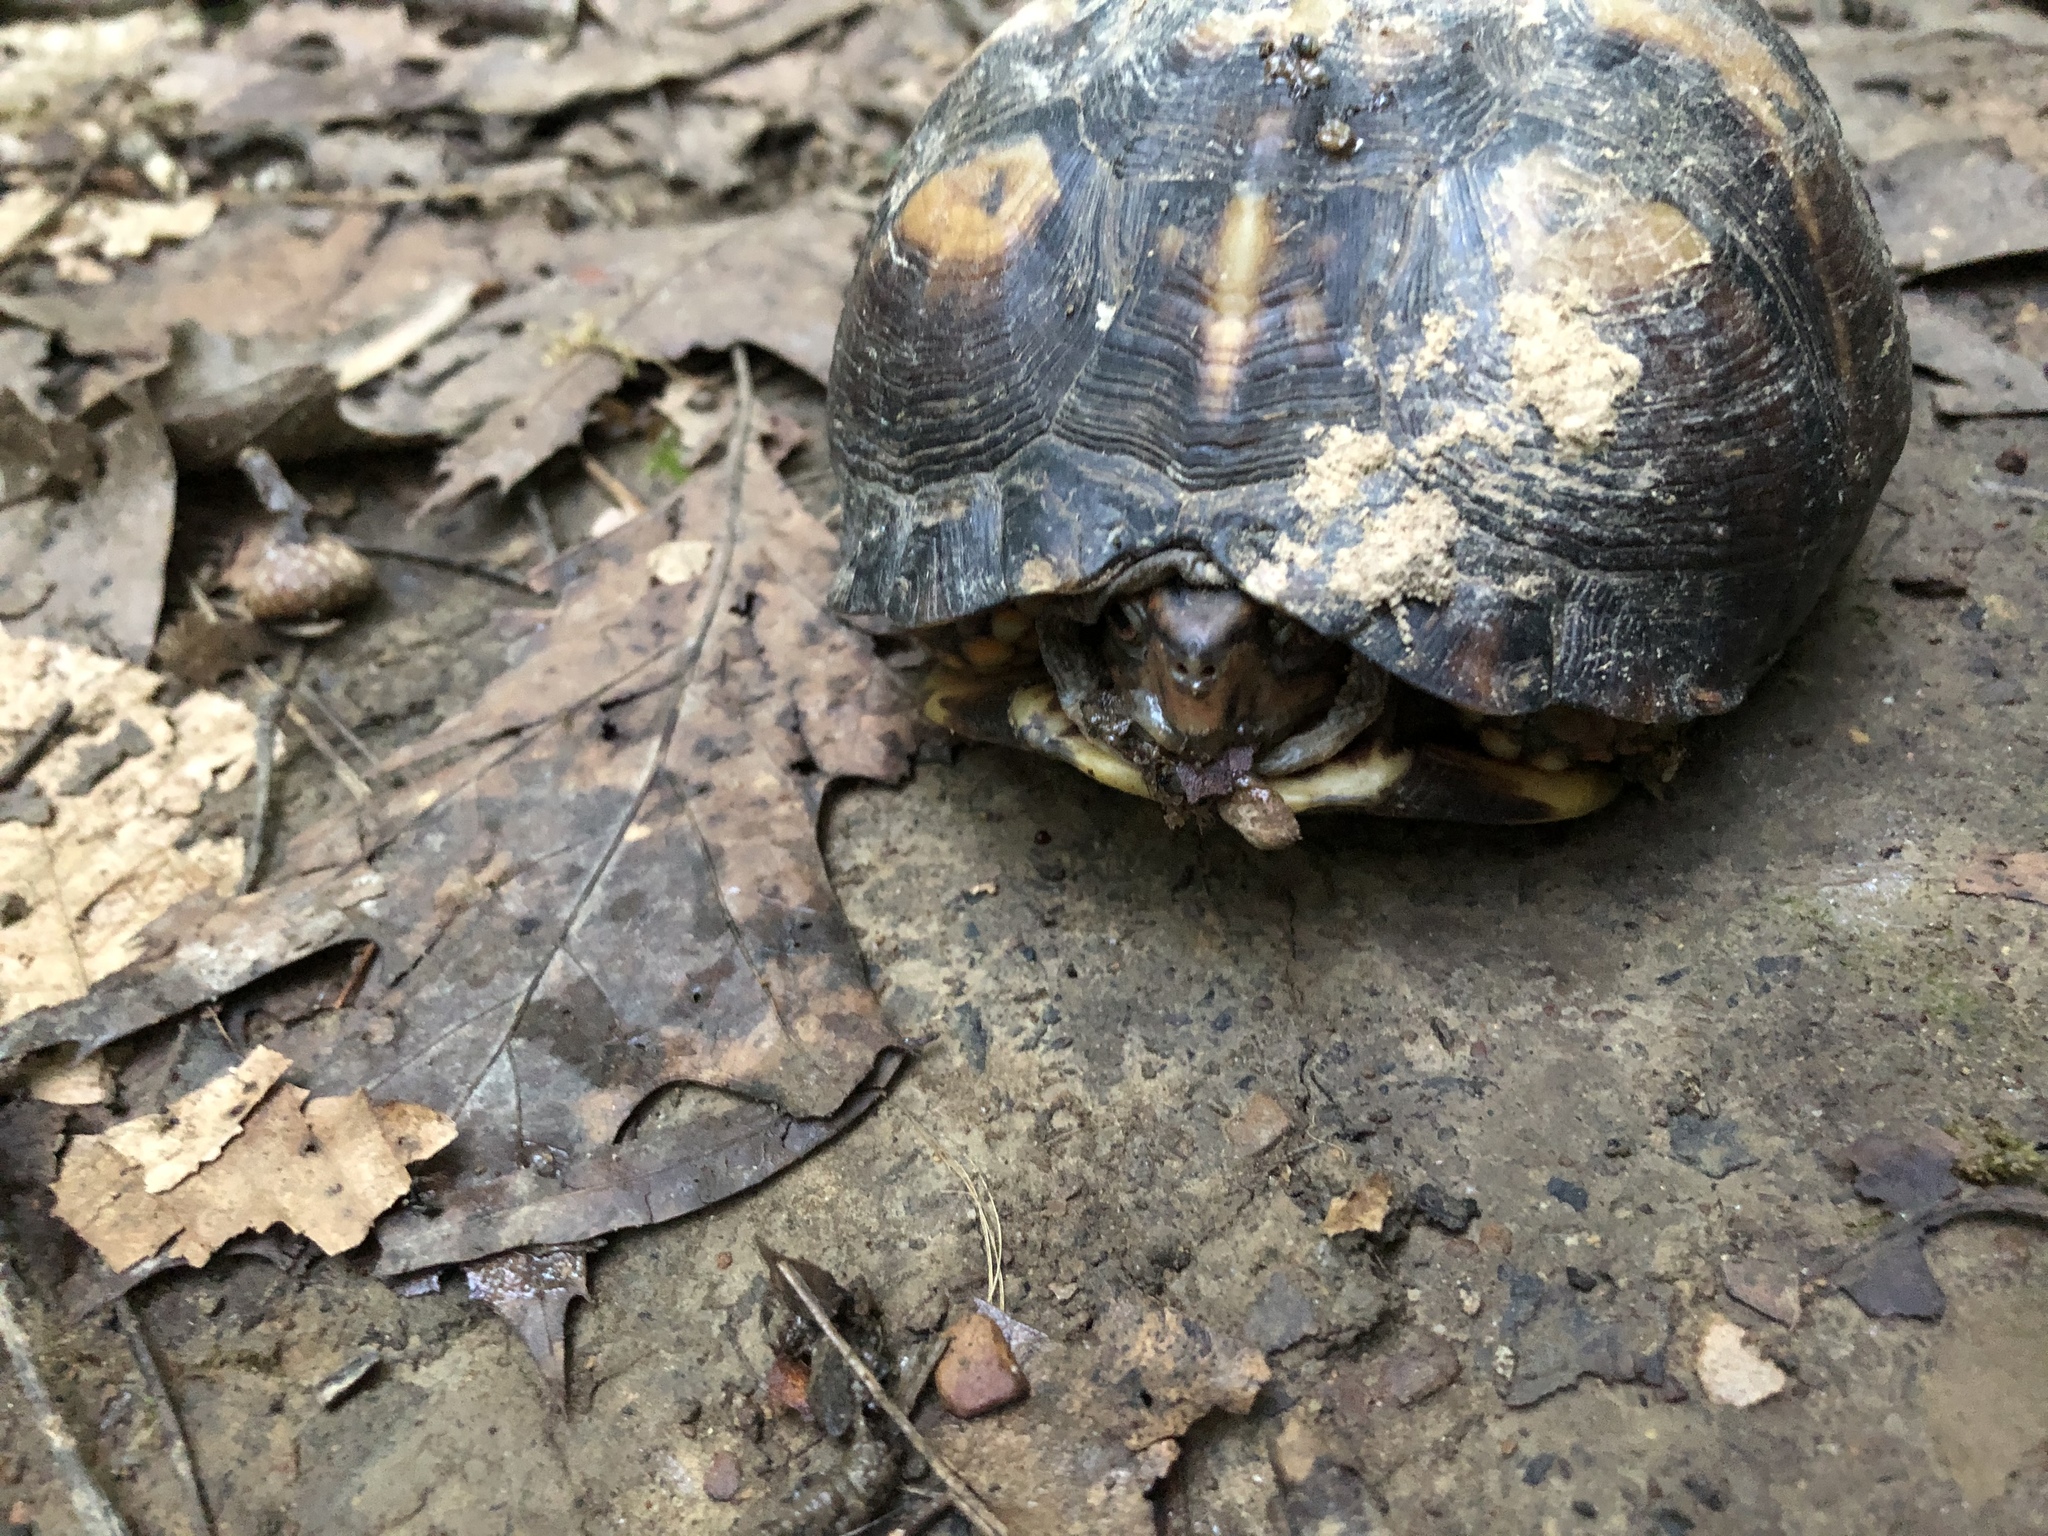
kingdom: Animalia
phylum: Chordata
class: Testudines
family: Emydidae
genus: Terrapene
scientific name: Terrapene carolina
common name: Common box turtle
